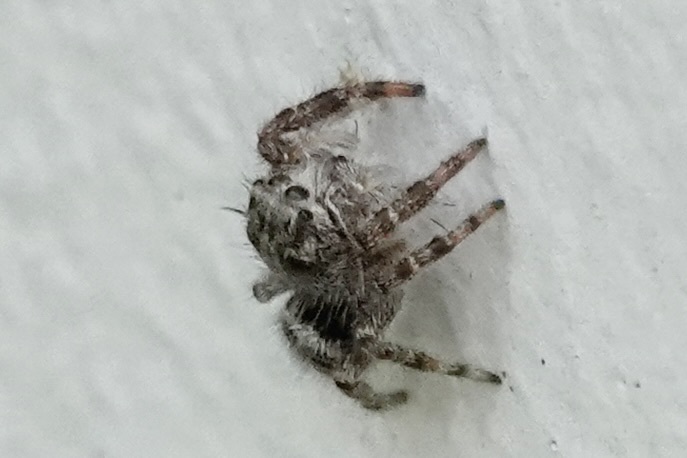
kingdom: Animalia
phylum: Arthropoda
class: Arachnida
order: Araneae
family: Salticidae
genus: Phidippus
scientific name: Phidippus putnami
